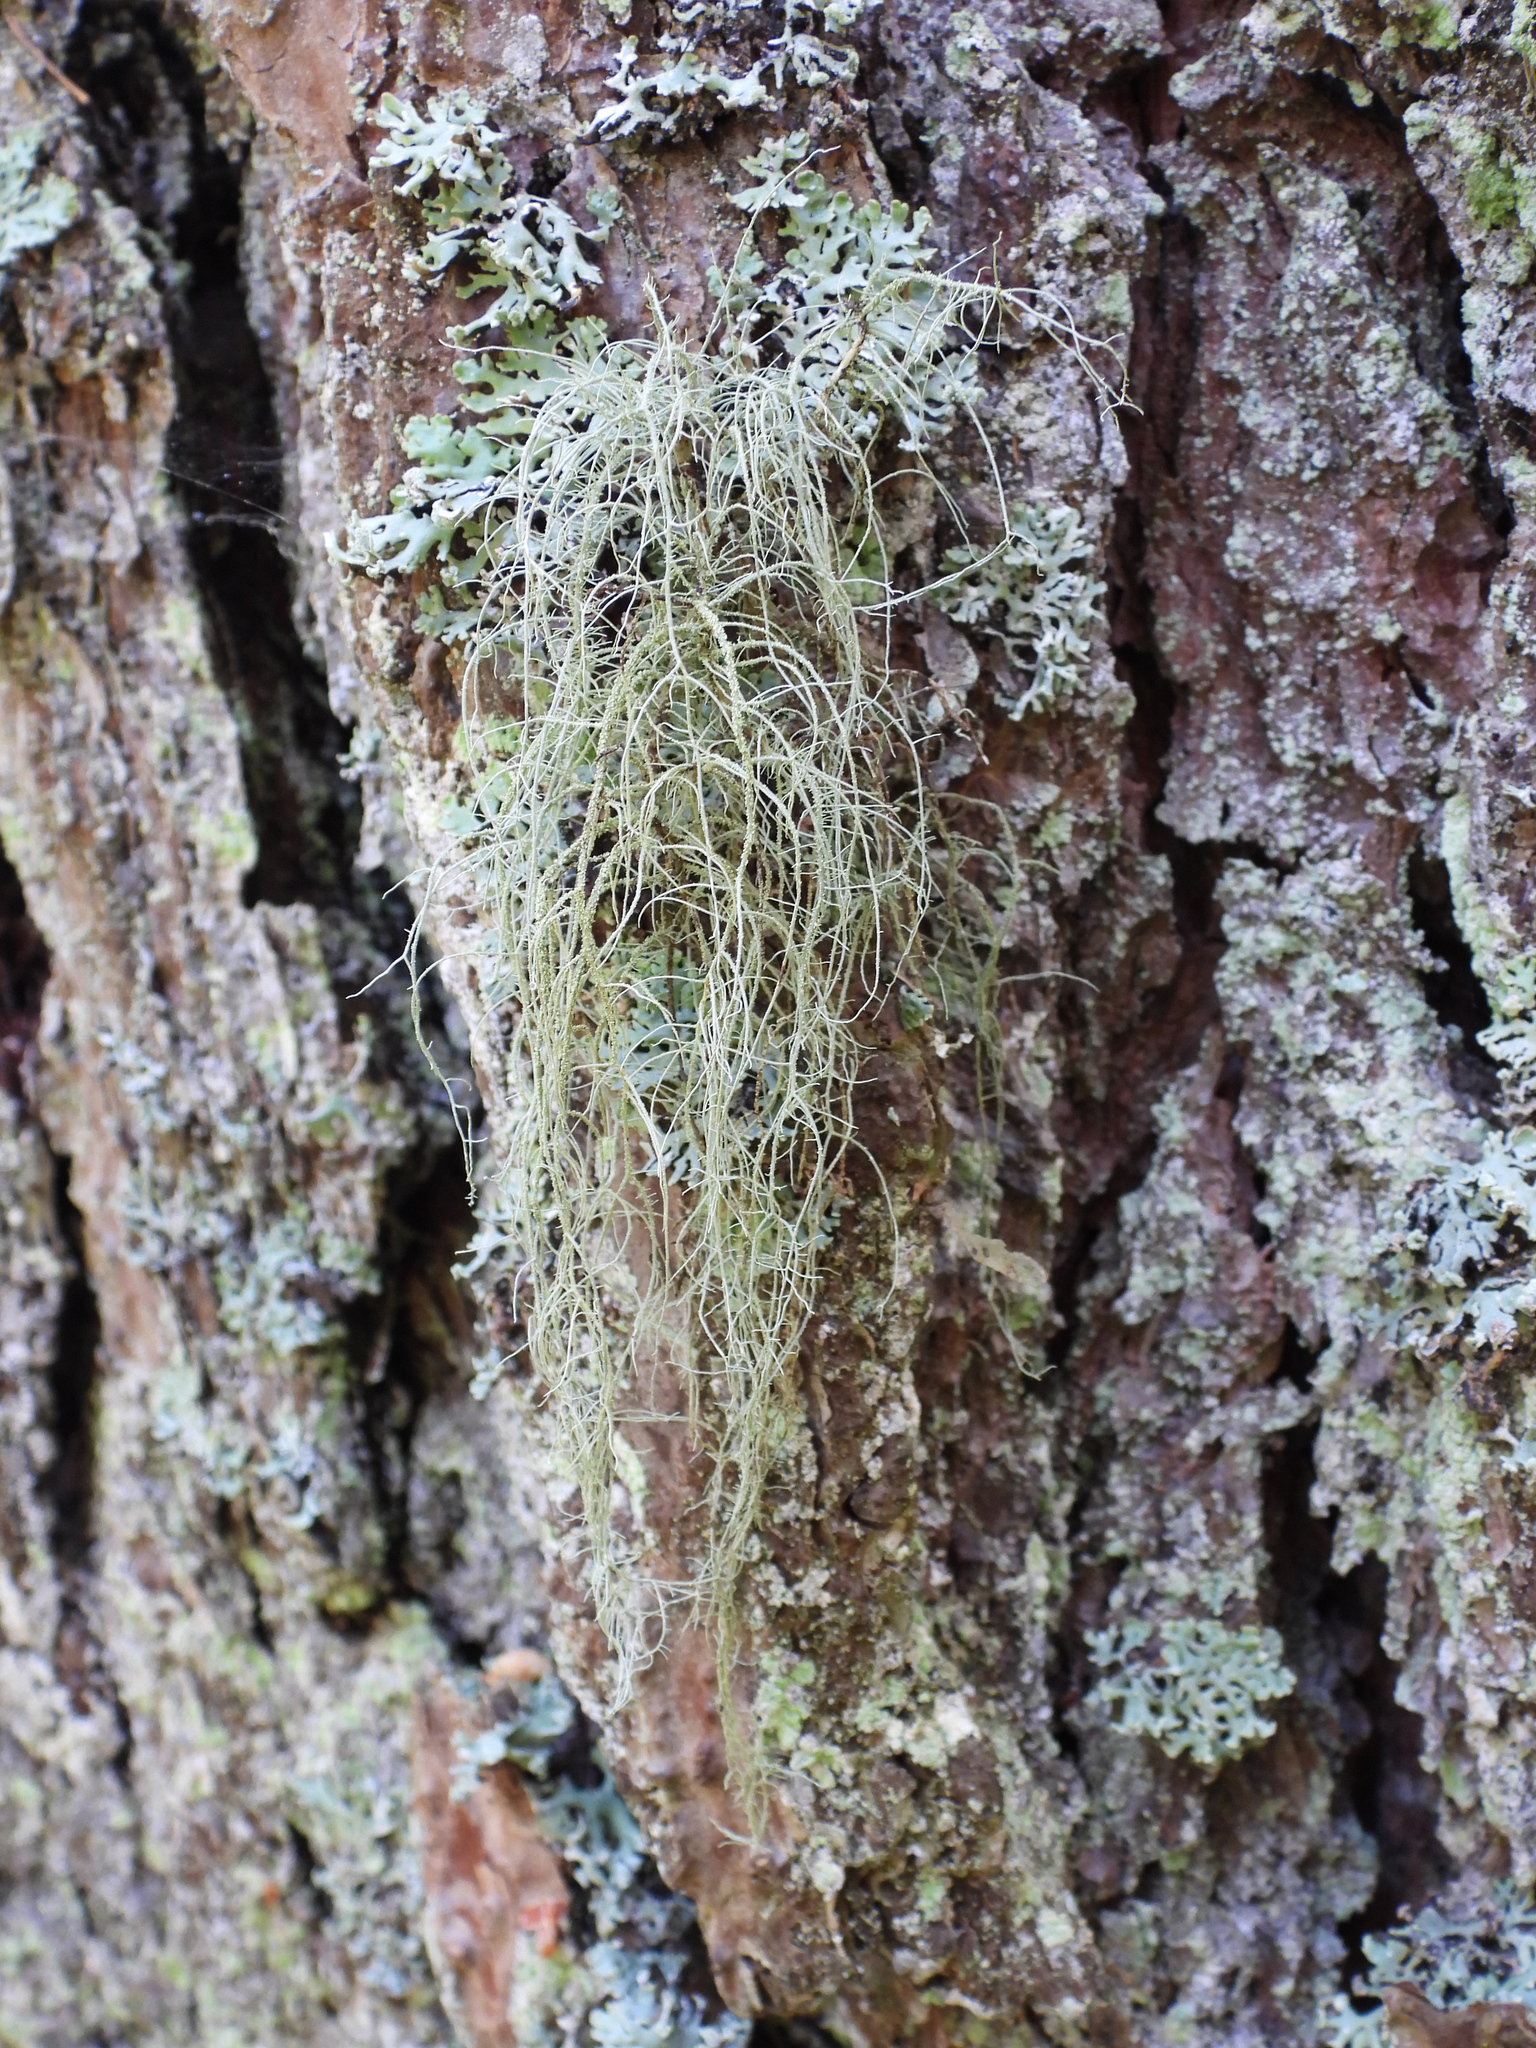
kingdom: Fungi
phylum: Ascomycota
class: Lecanoromycetes
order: Lecanorales
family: Parmeliaceae
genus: Usnea
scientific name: Usnea dasopoga
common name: Fishbone beard lichen
